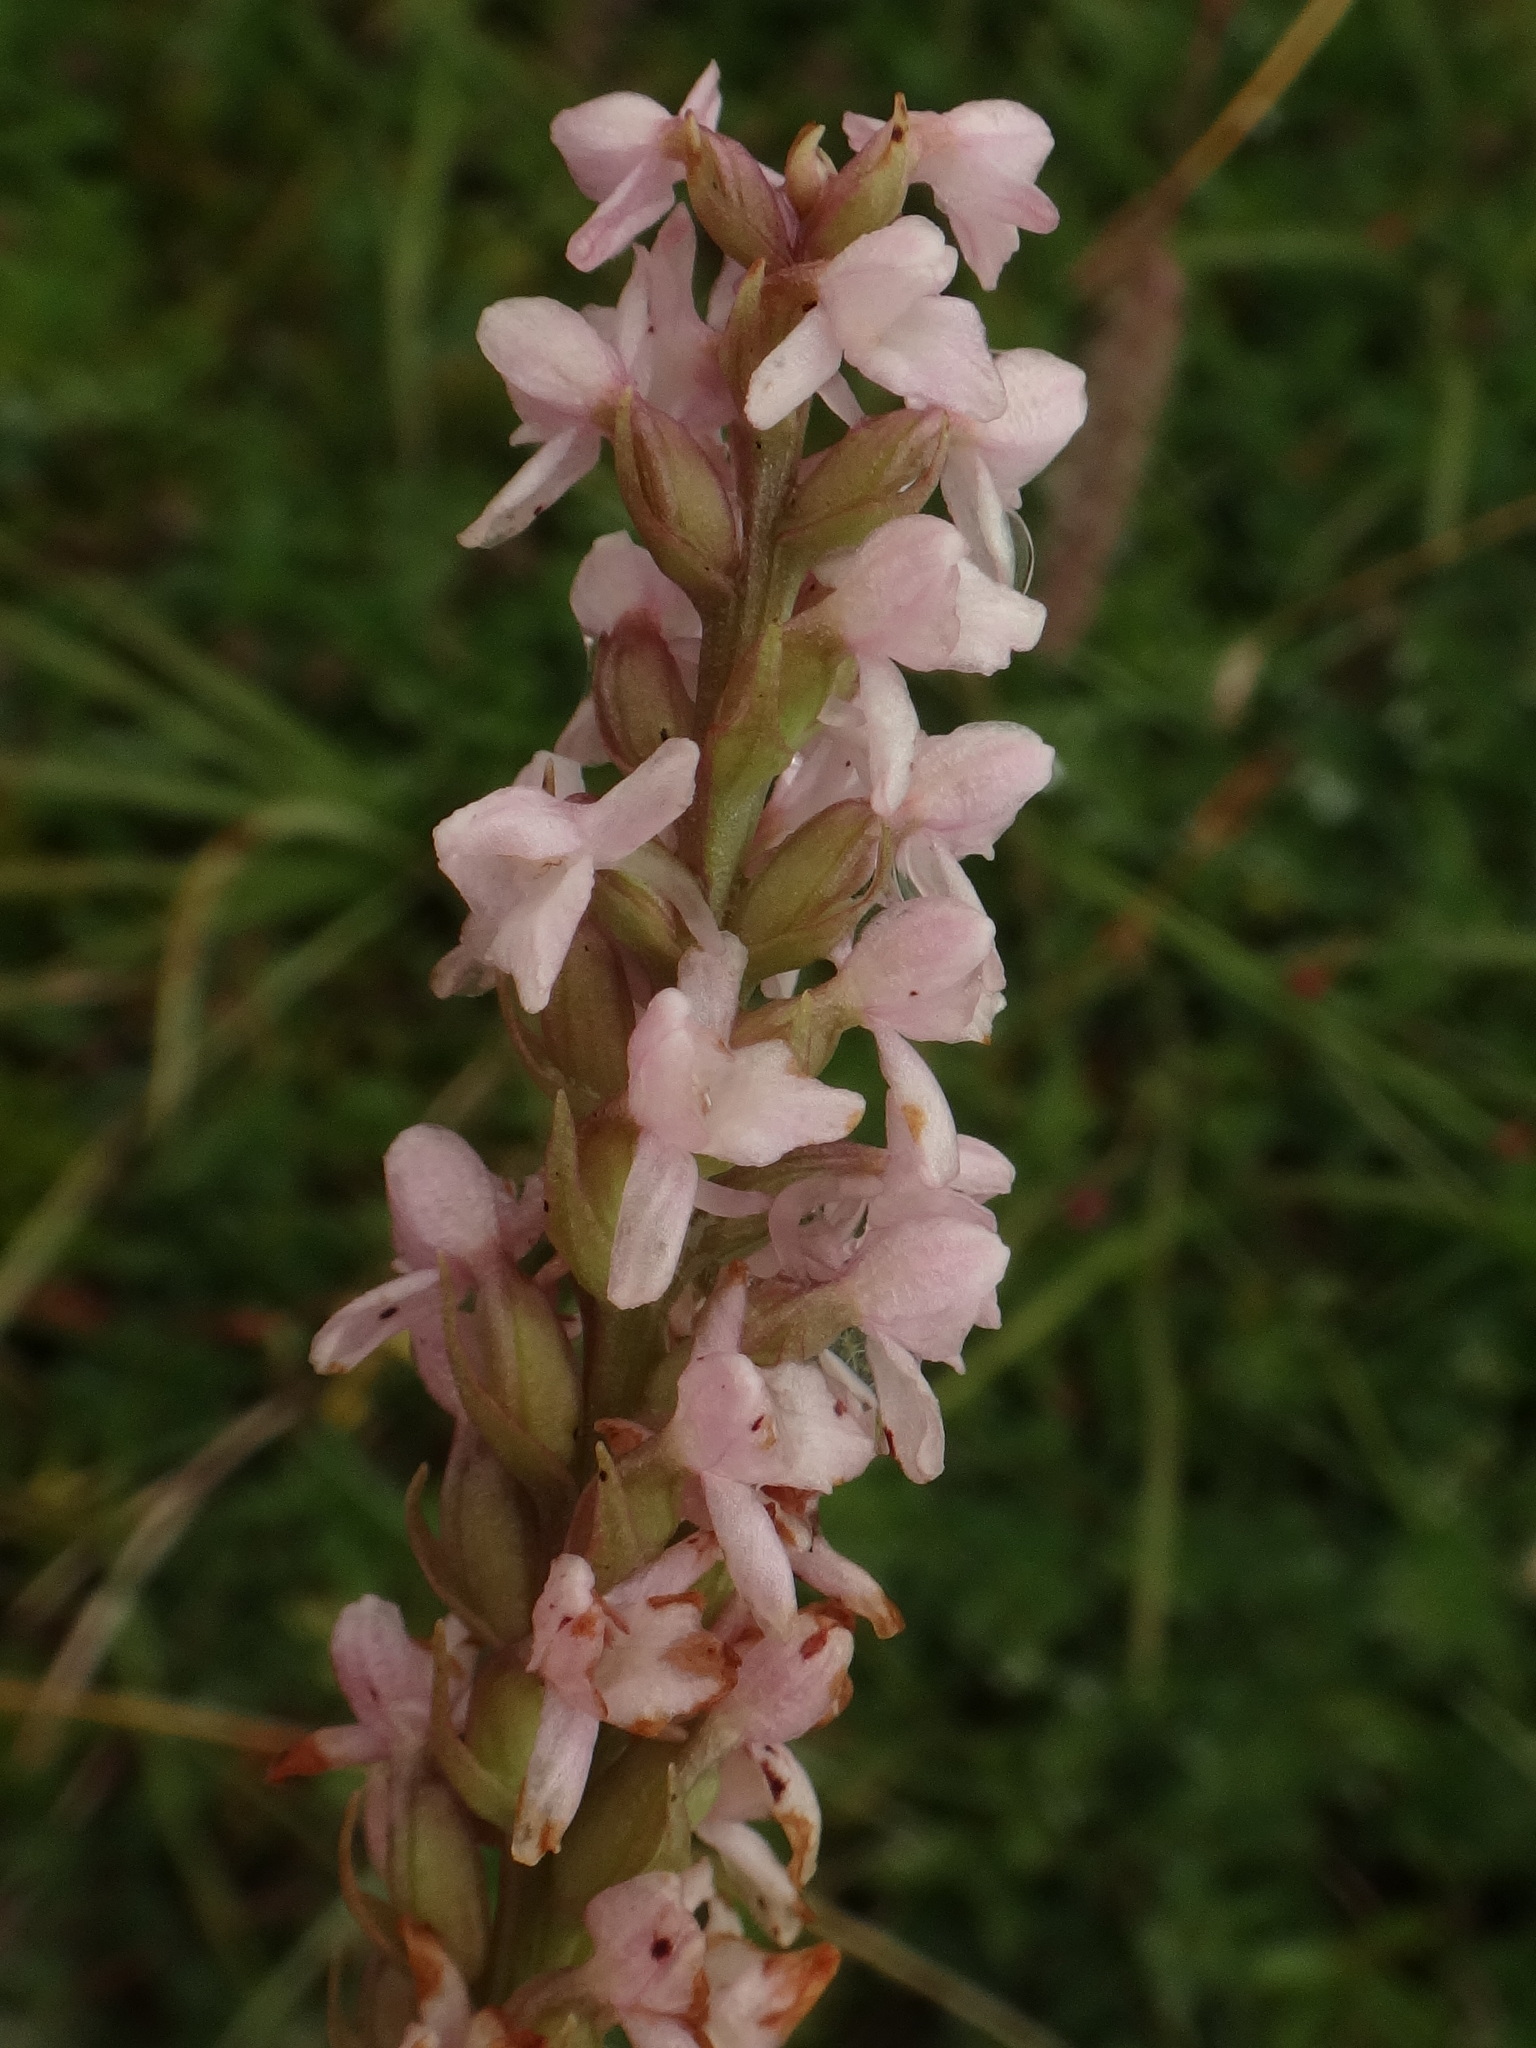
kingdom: Plantae
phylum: Tracheophyta
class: Liliopsida
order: Asparagales
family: Orchidaceae
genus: Gymnadenia
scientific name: Gymnadenia odoratissima
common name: Scented gymnadenia
